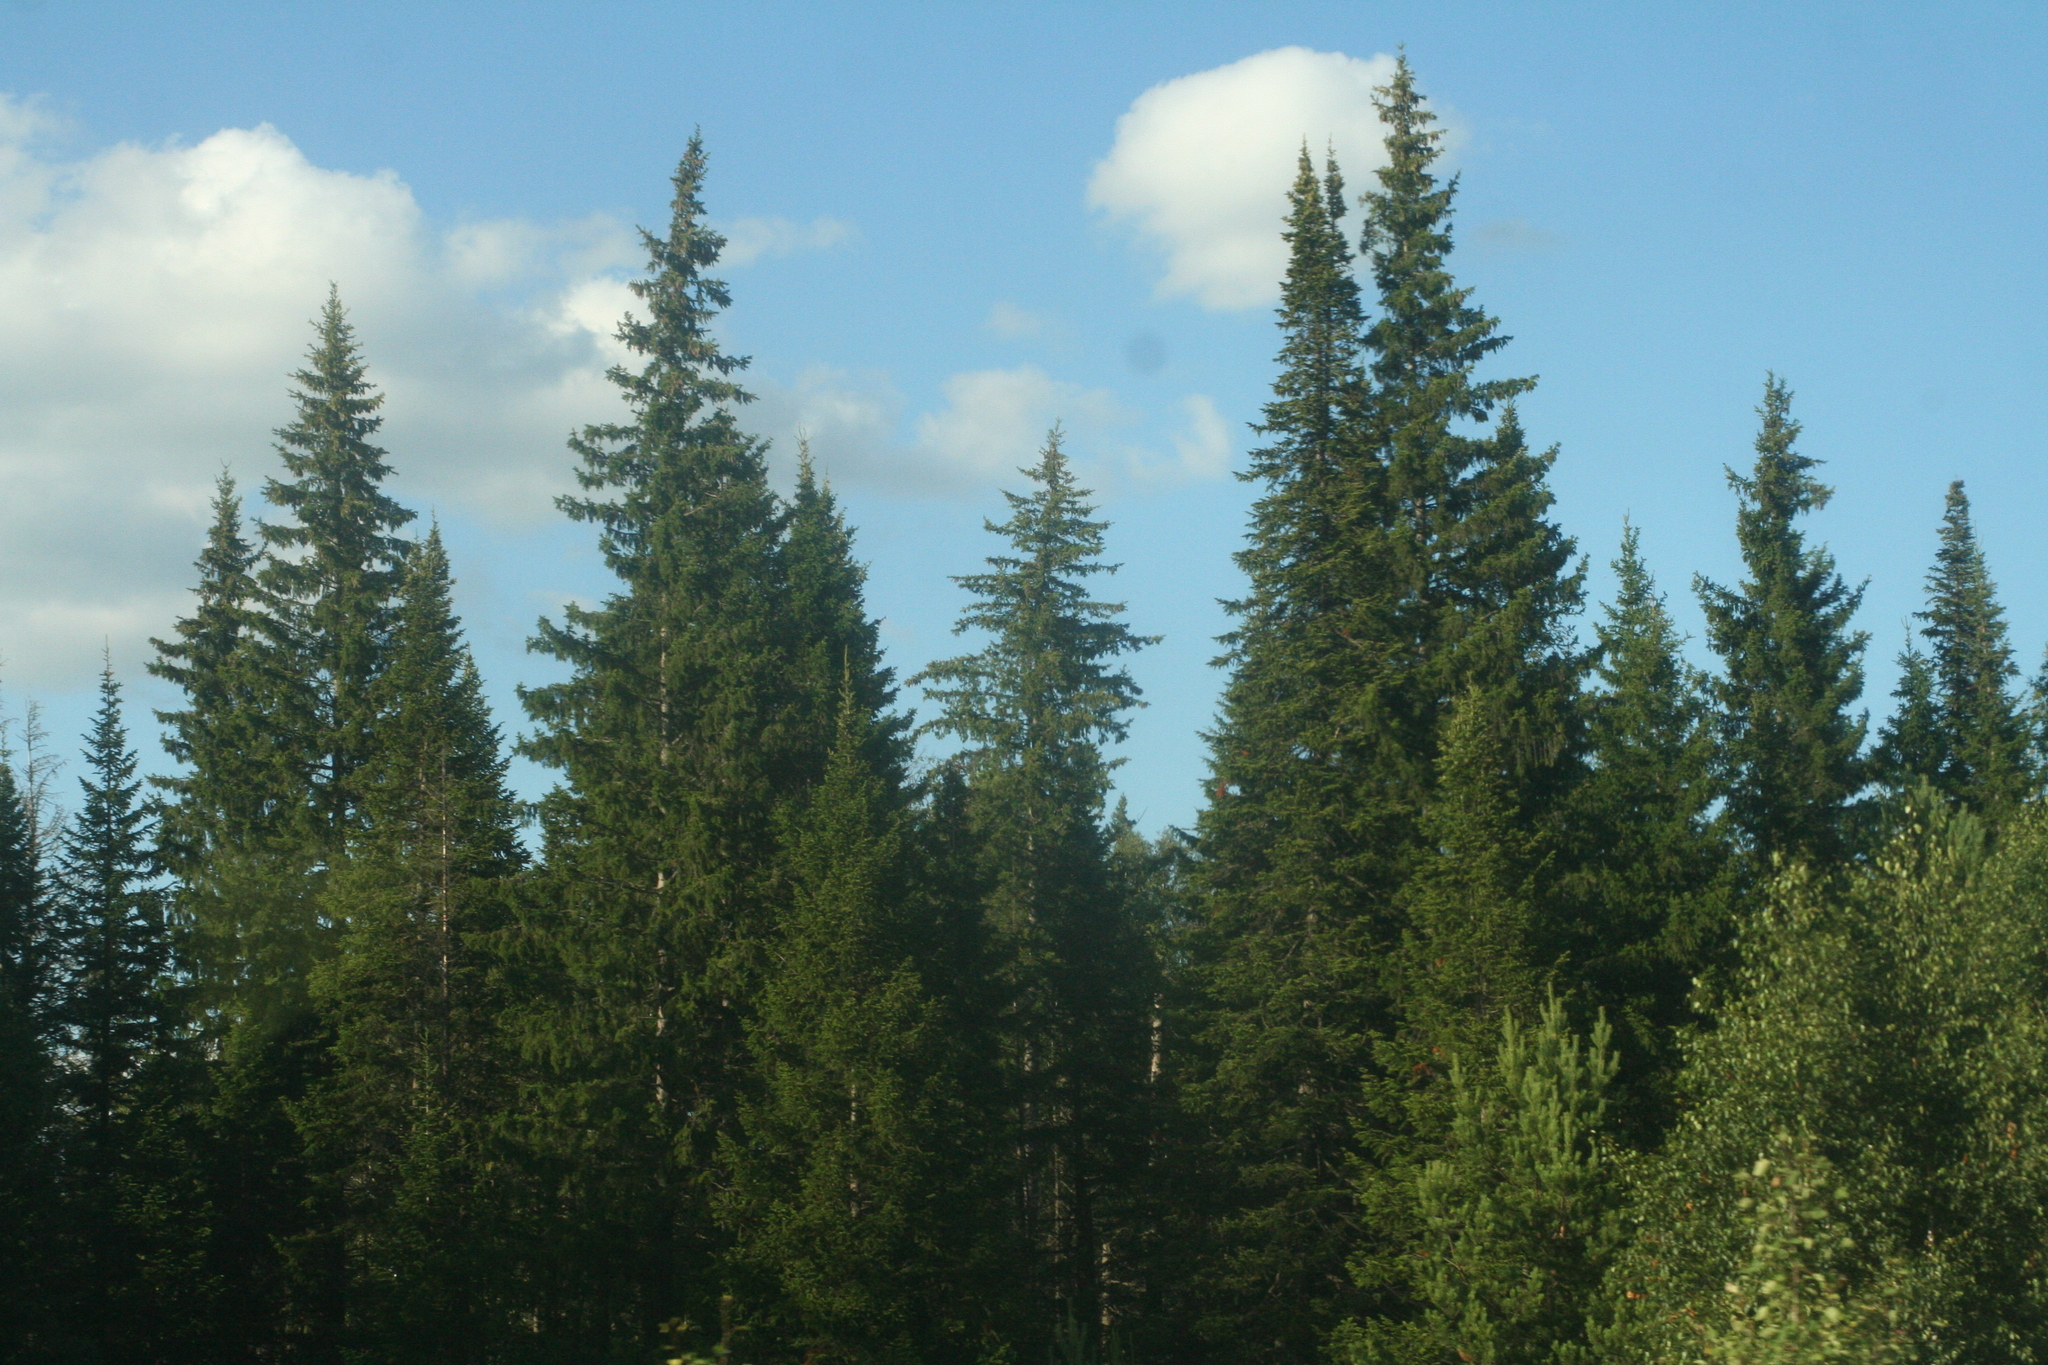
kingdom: Plantae
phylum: Tracheophyta
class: Pinopsida
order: Pinales
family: Pinaceae
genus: Picea
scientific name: Picea obovata
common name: Siberian spruce
